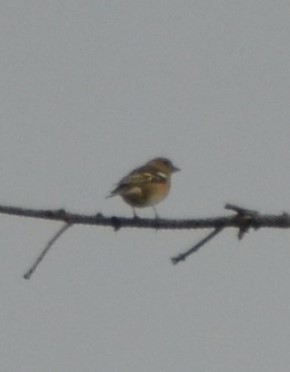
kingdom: Animalia
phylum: Chordata
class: Aves
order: Passeriformes
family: Fringillidae
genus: Fringilla
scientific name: Fringilla coelebs
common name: Common chaffinch
